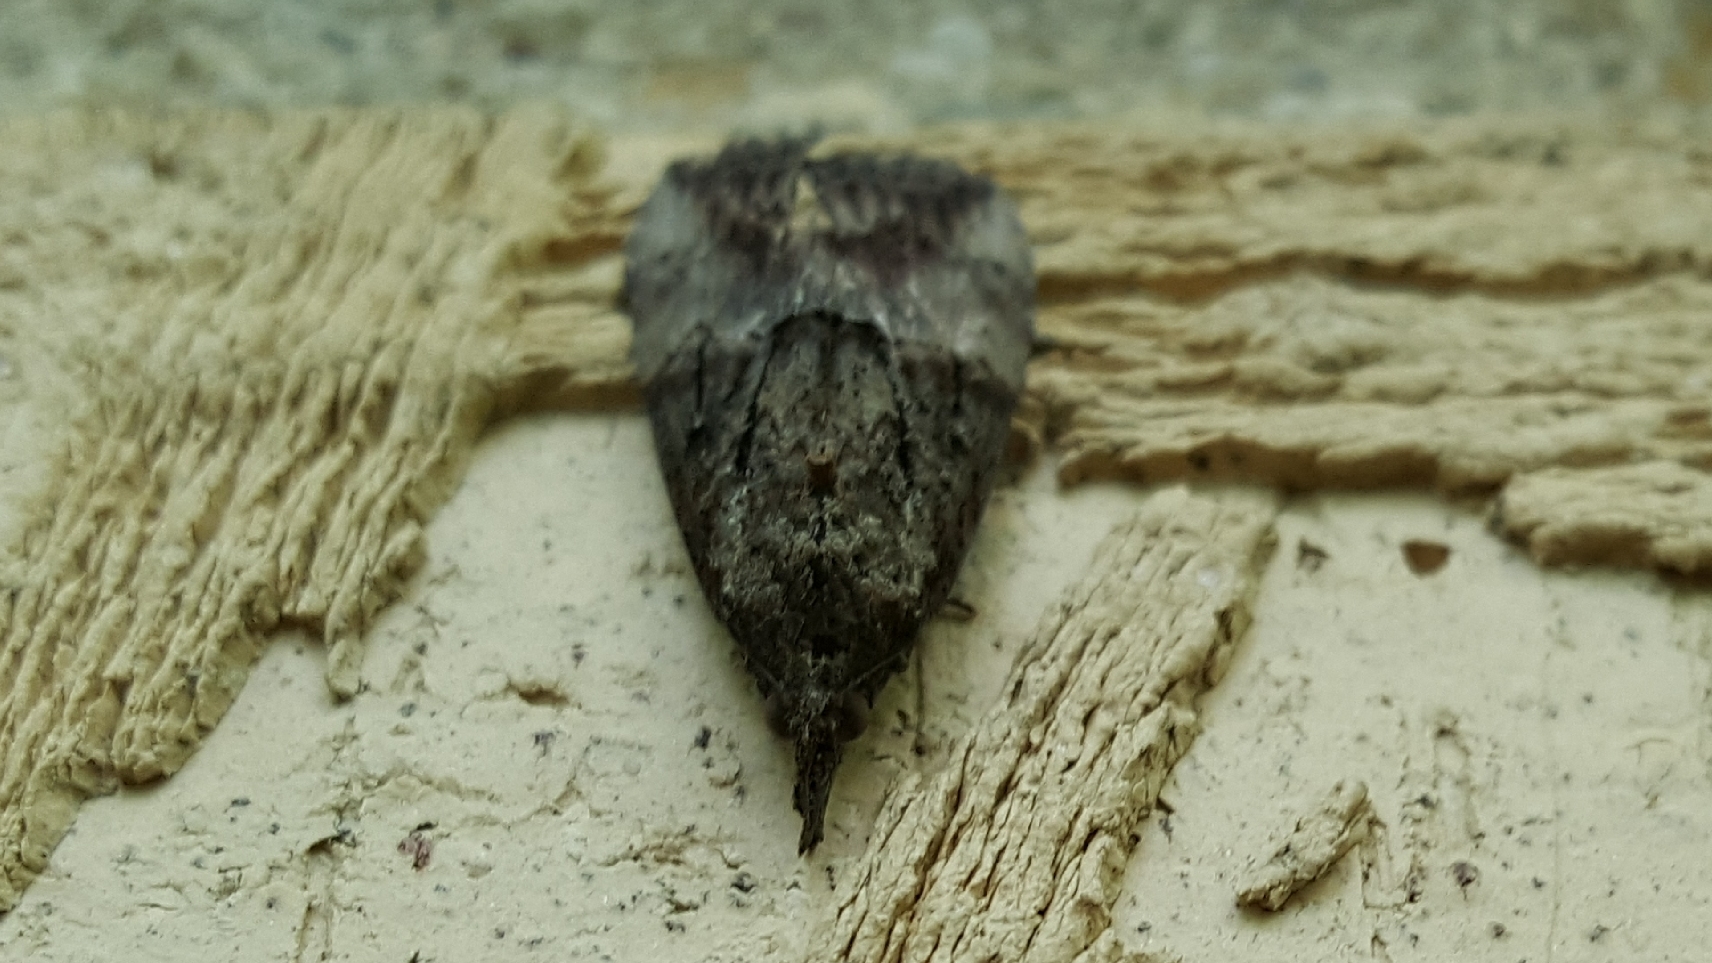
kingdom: Animalia
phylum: Arthropoda
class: Insecta
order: Lepidoptera
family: Erebidae
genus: Hypena
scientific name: Hypena scabra
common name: Green cloverworm
